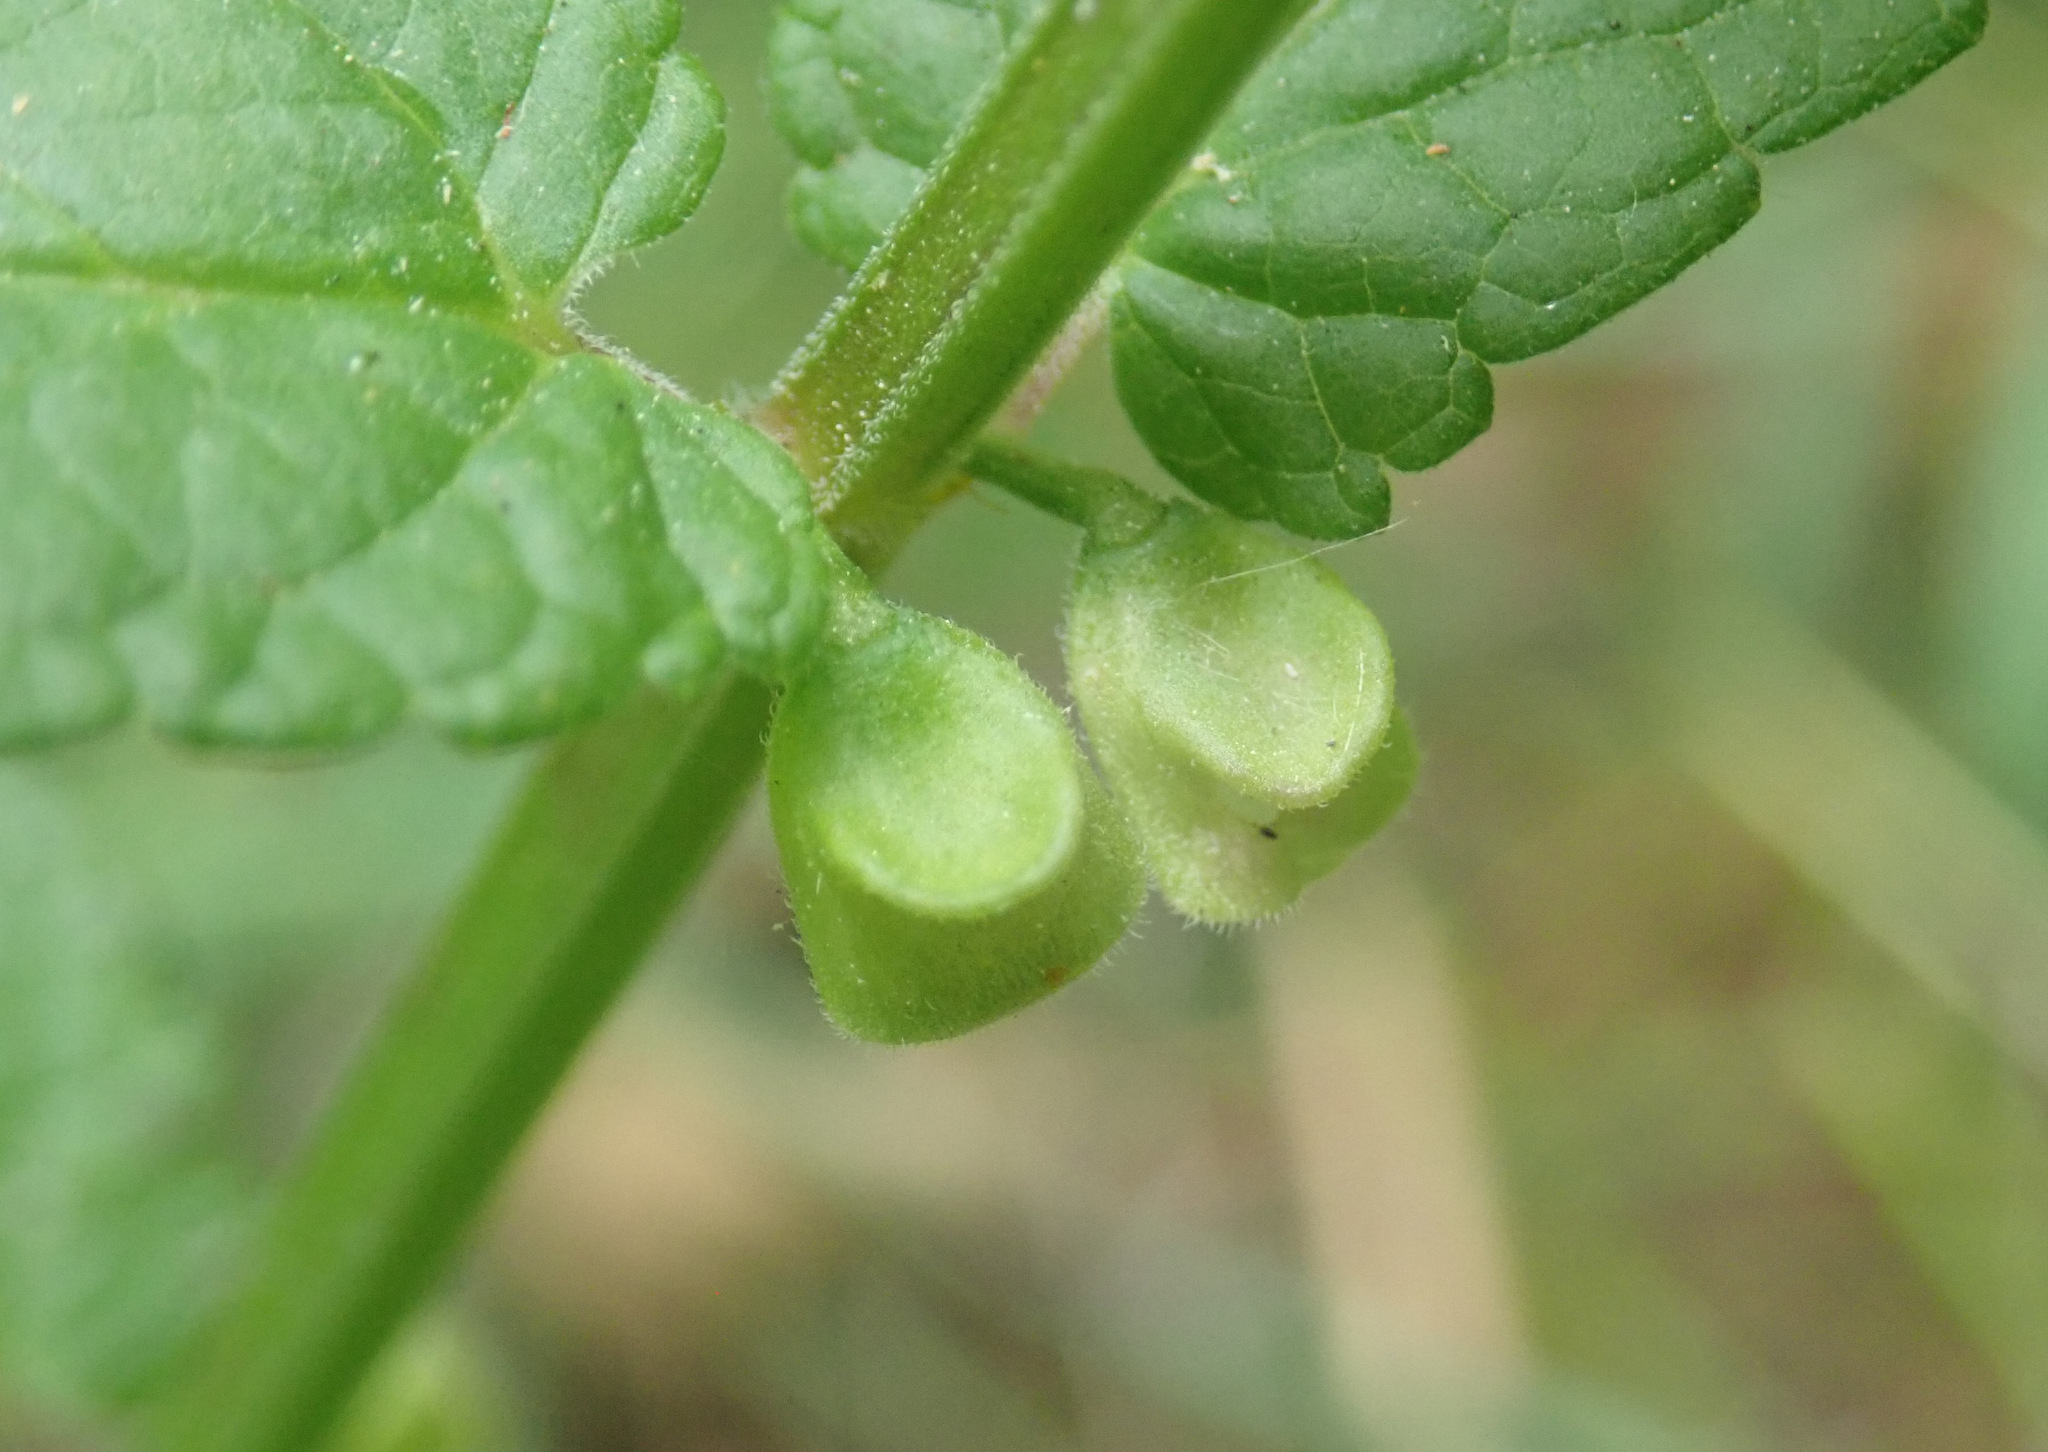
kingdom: Plantae
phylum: Tracheophyta
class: Magnoliopsida
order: Lamiales
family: Lamiaceae
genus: Scutellaria
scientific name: Scutellaria galericulata
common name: Skullcap
